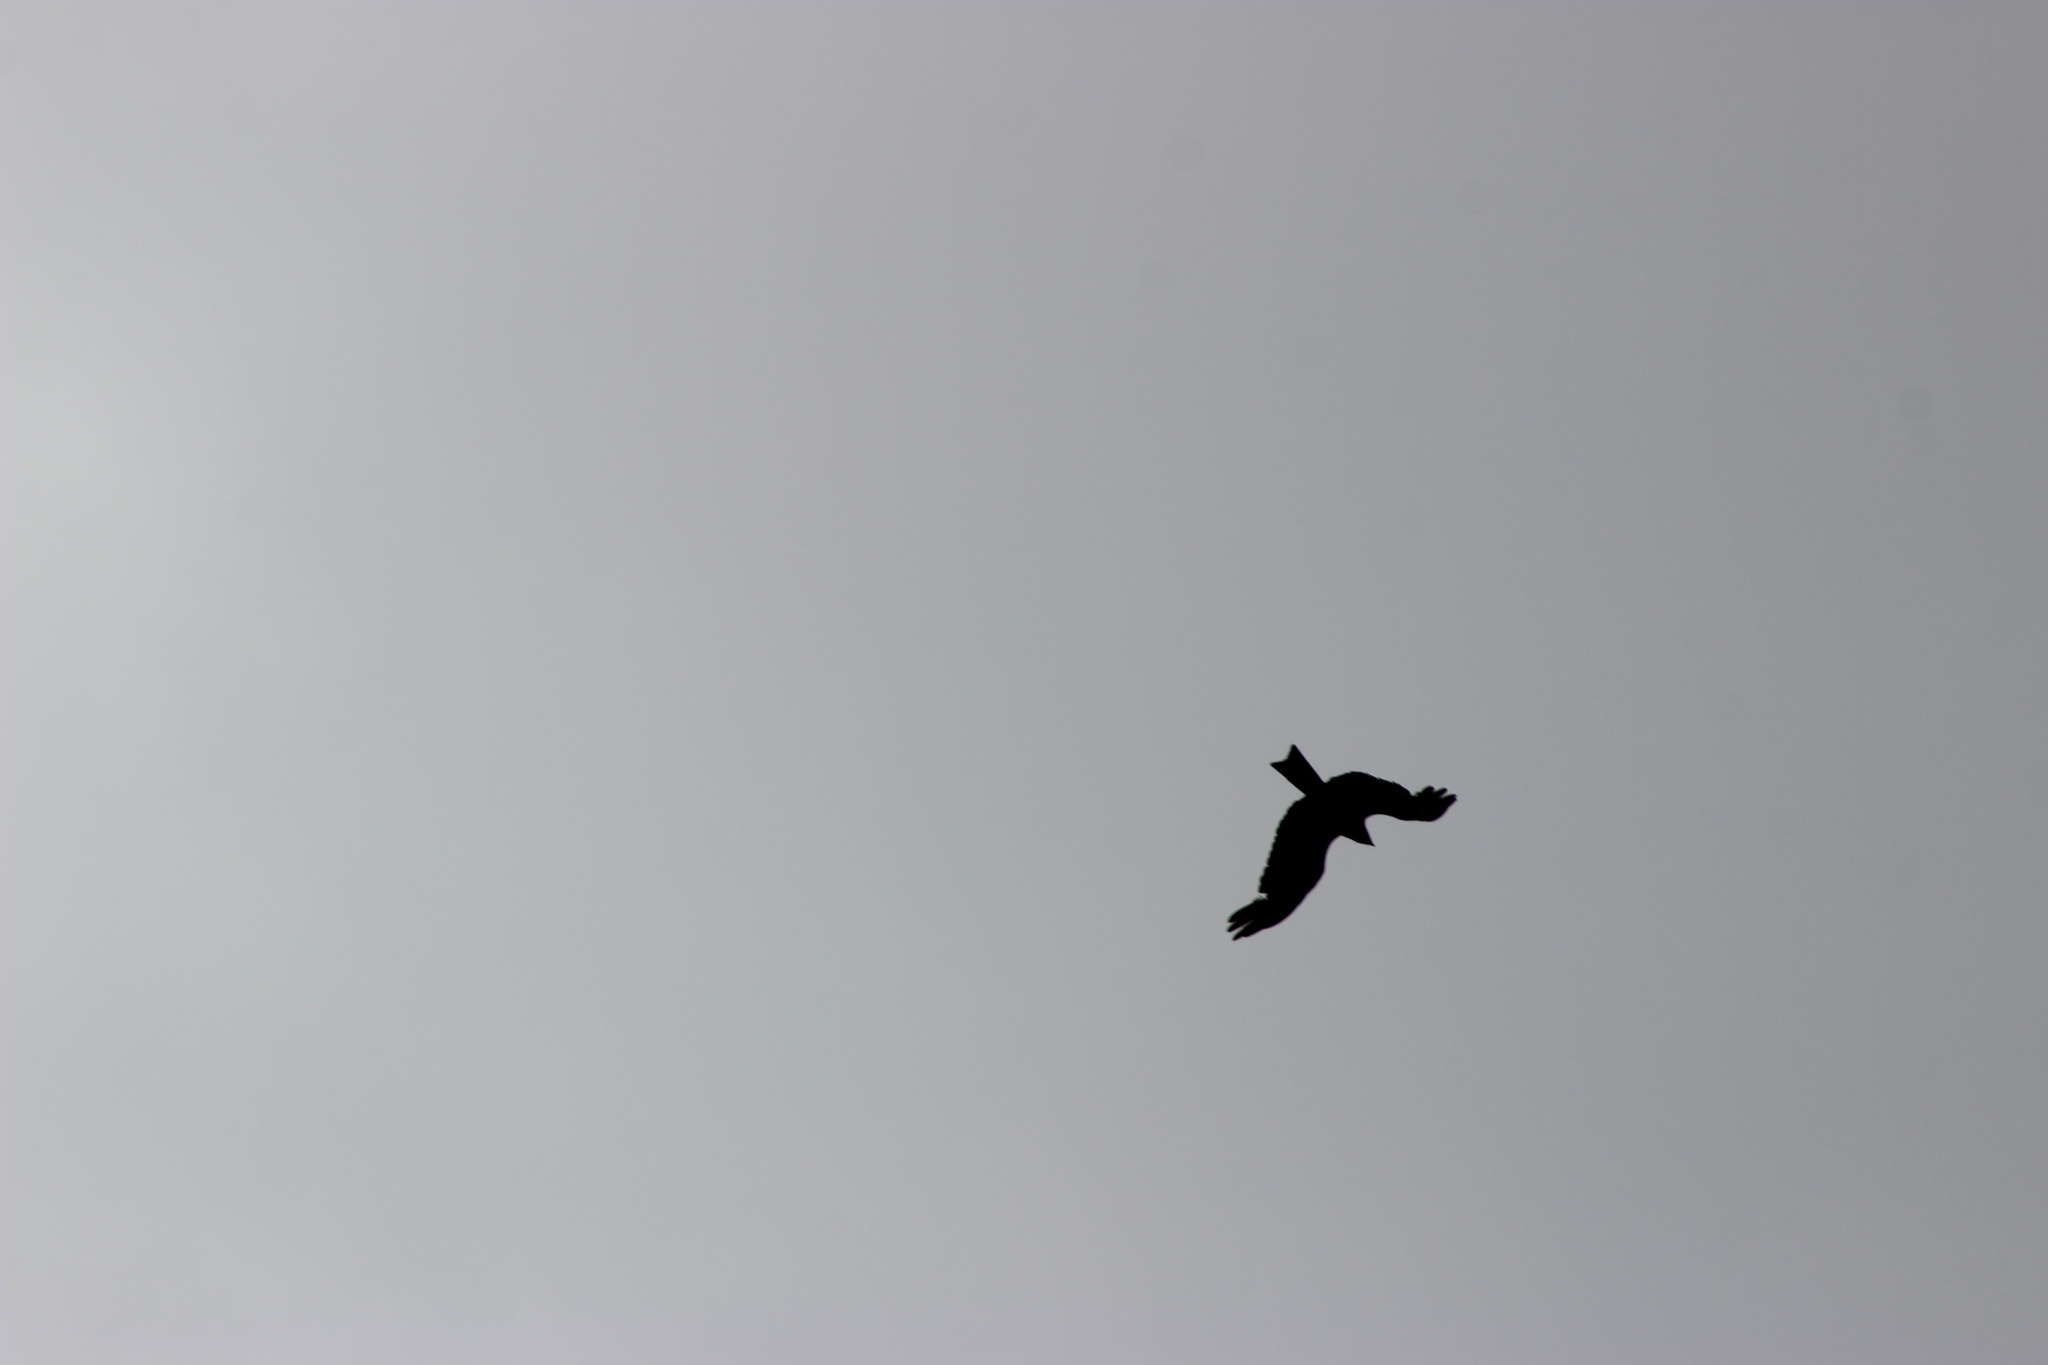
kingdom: Animalia
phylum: Chordata
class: Aves
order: Accipitriformes
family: Accipitridae
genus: Milvus
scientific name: Milvus migrans
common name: Black kite
